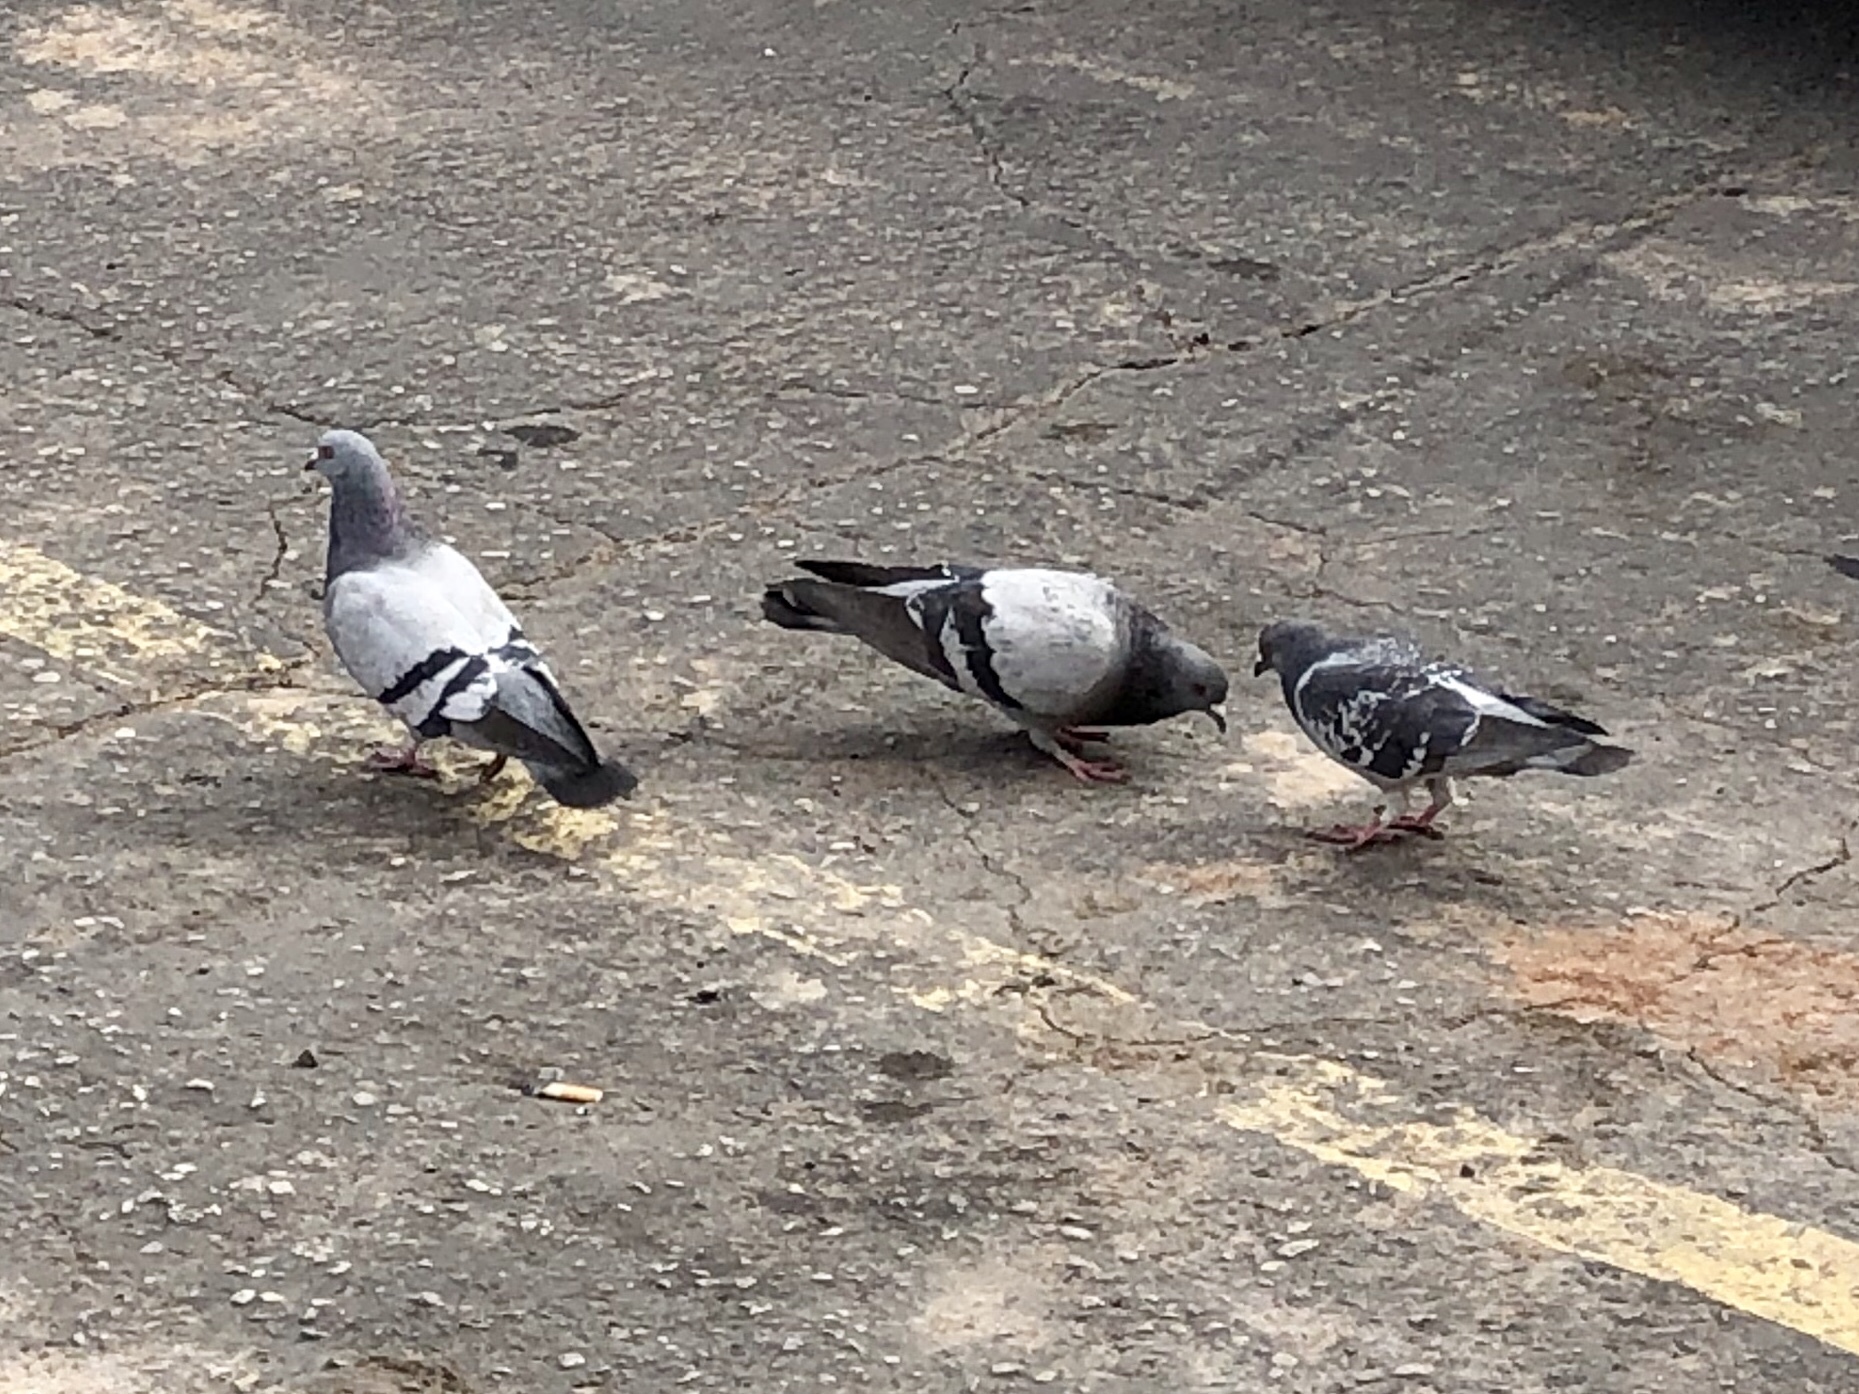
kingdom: Animalia
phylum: Chordata
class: Aves
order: Columbiformes
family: Columbidae
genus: Columba
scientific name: Columba livia
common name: Rock pigeon
